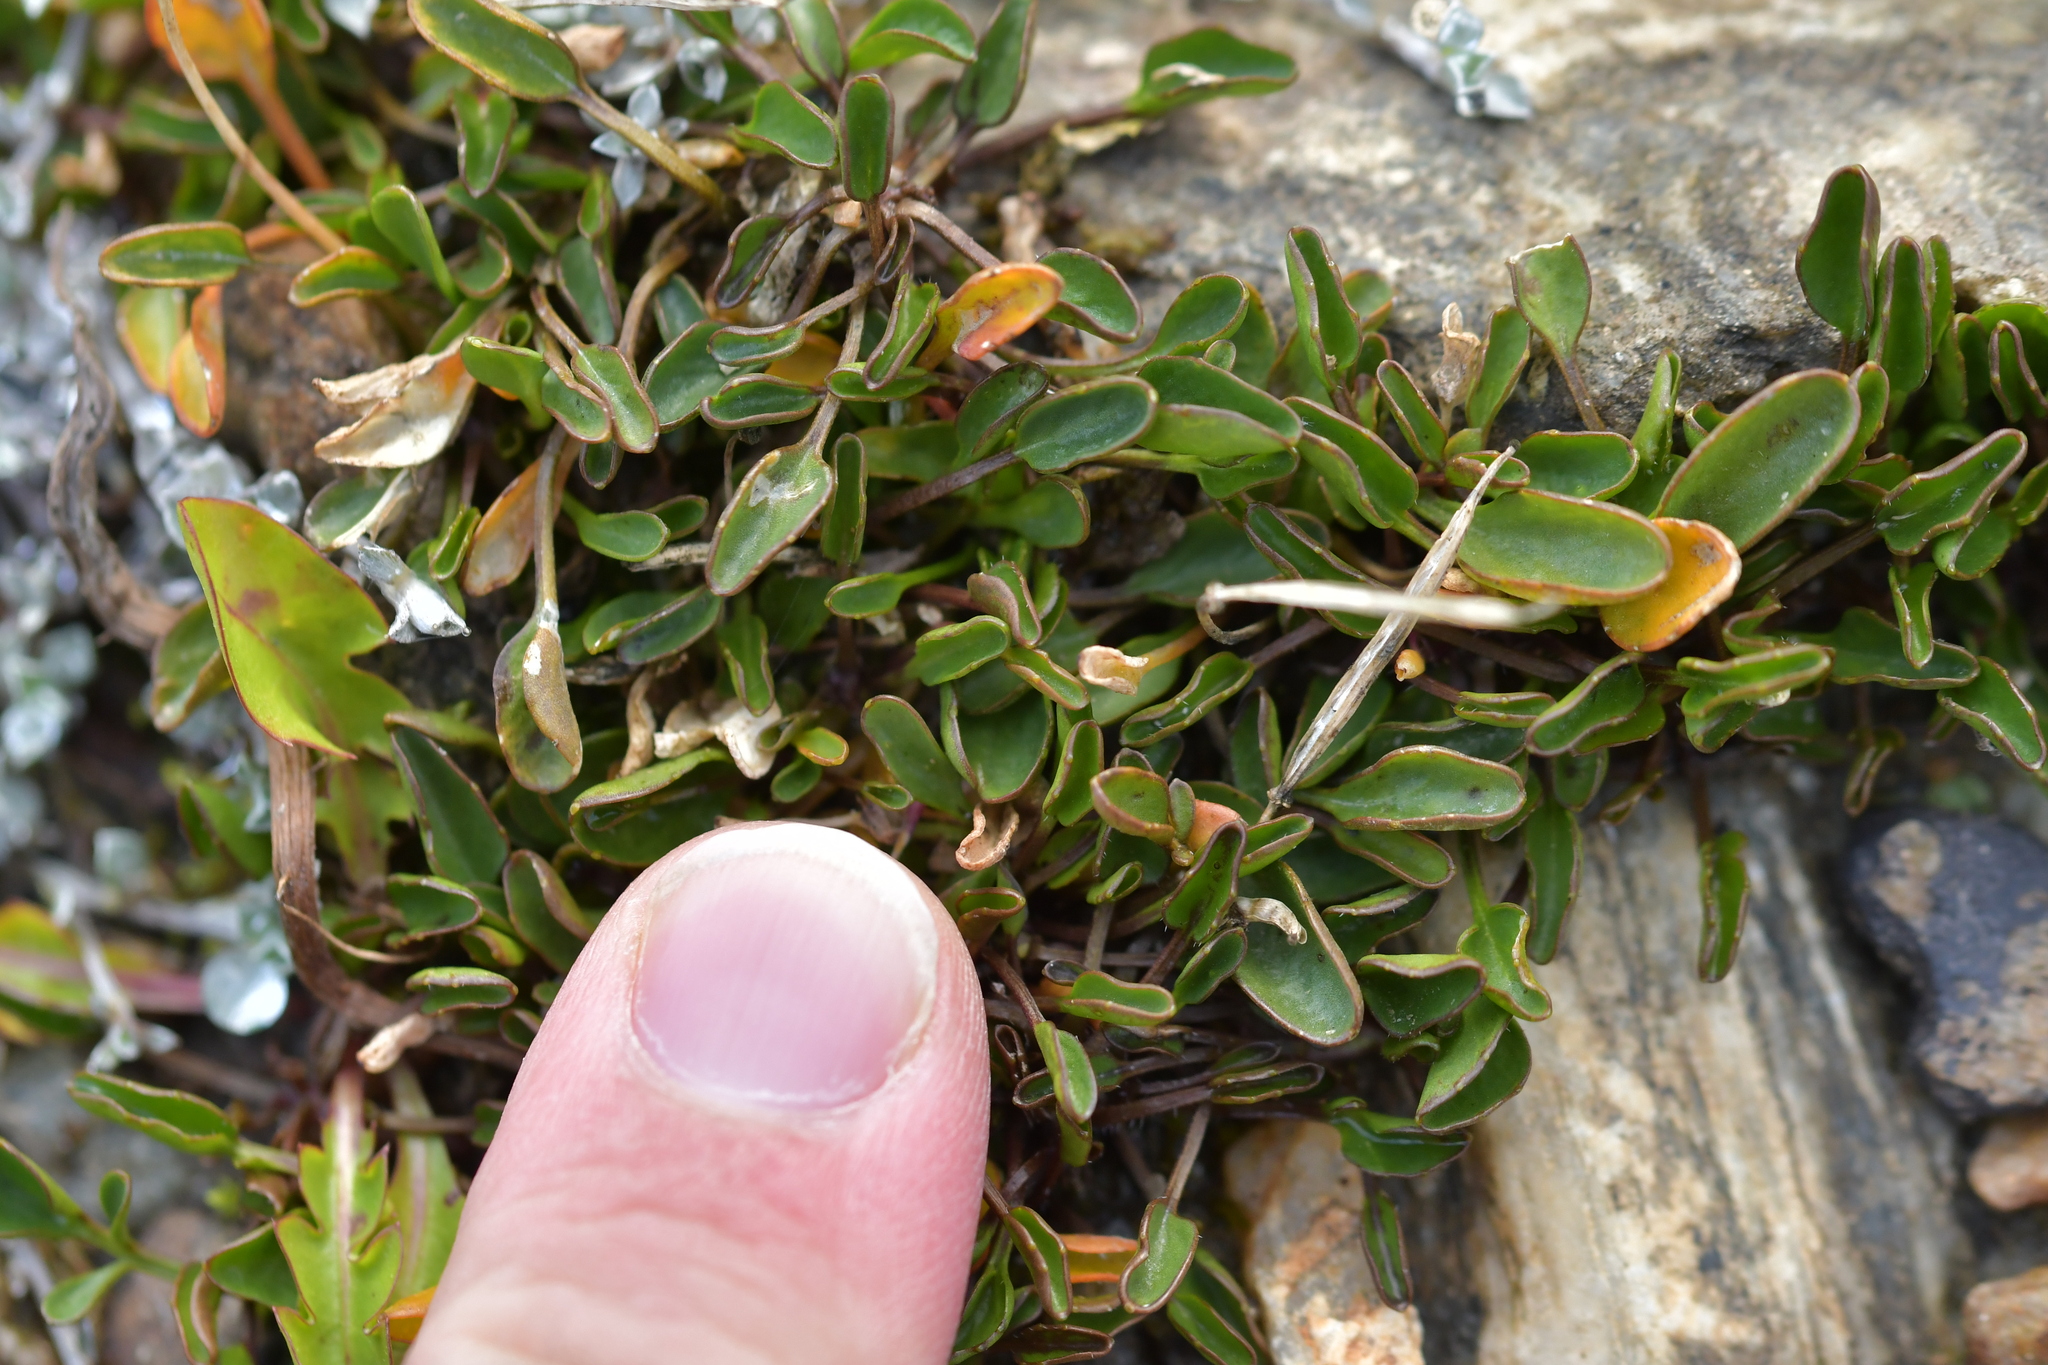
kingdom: Plantae
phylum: Tracheophyta
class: Magnoliopsida
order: Malpighiales
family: Violaceae
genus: Viola
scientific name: Viola cunninghamii
